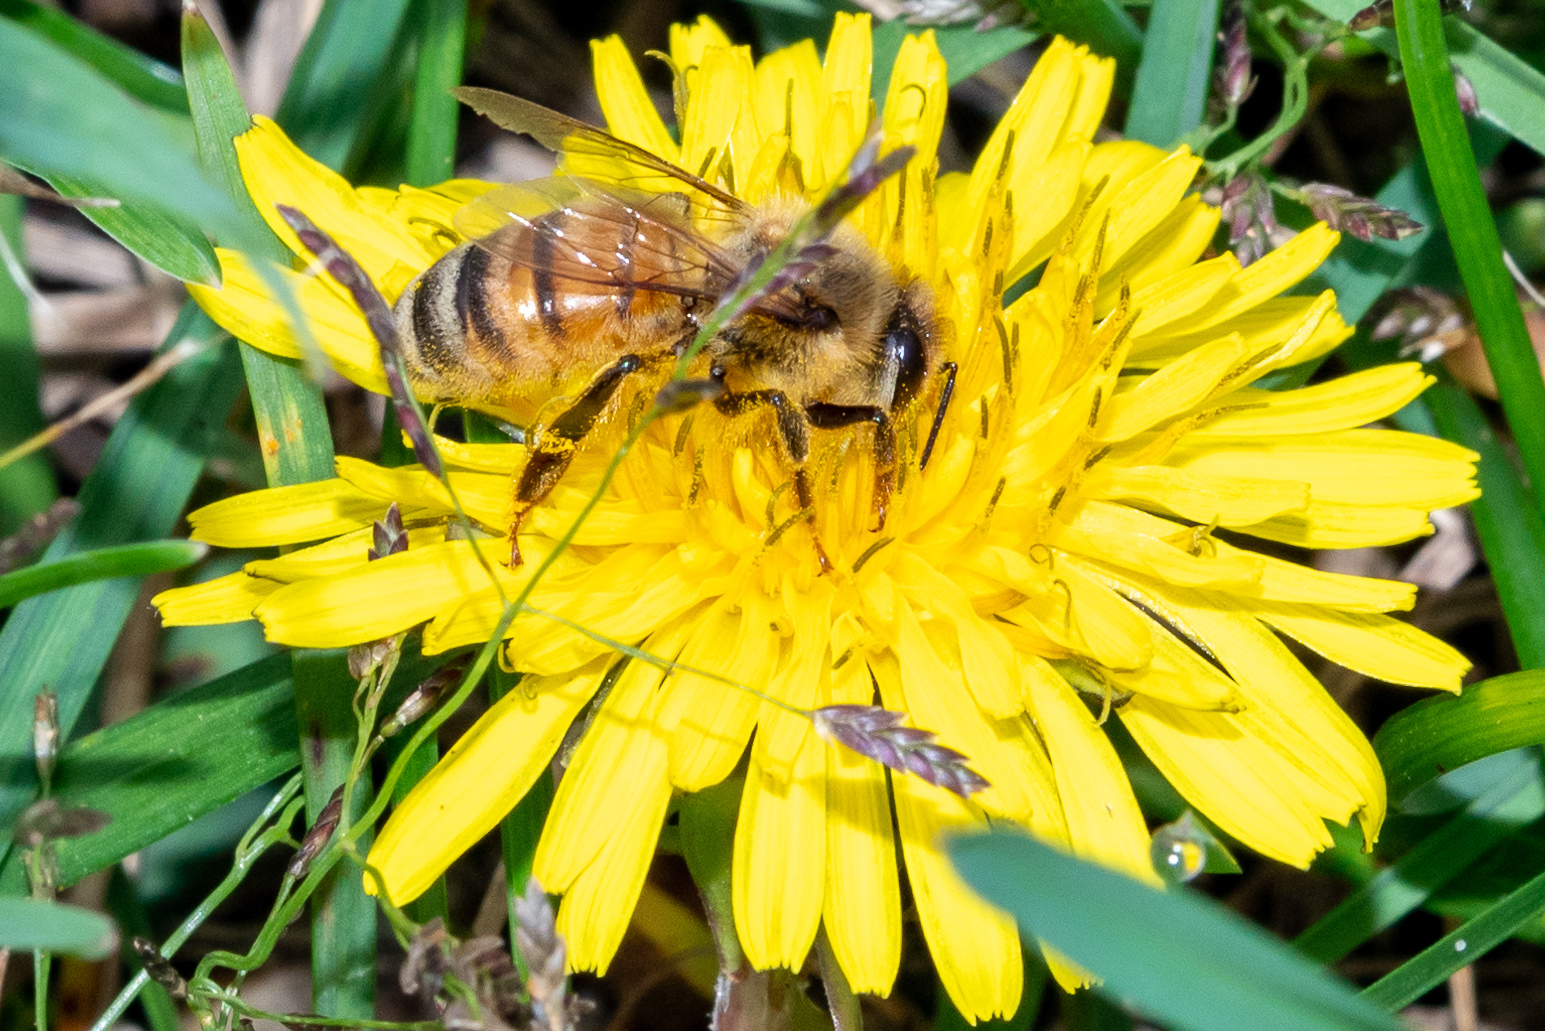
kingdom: Animalia
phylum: Arthropoda
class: Insecta
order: Hymenoptera
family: Apidae
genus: Apis
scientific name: Apis mellifera
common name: Honey bee
